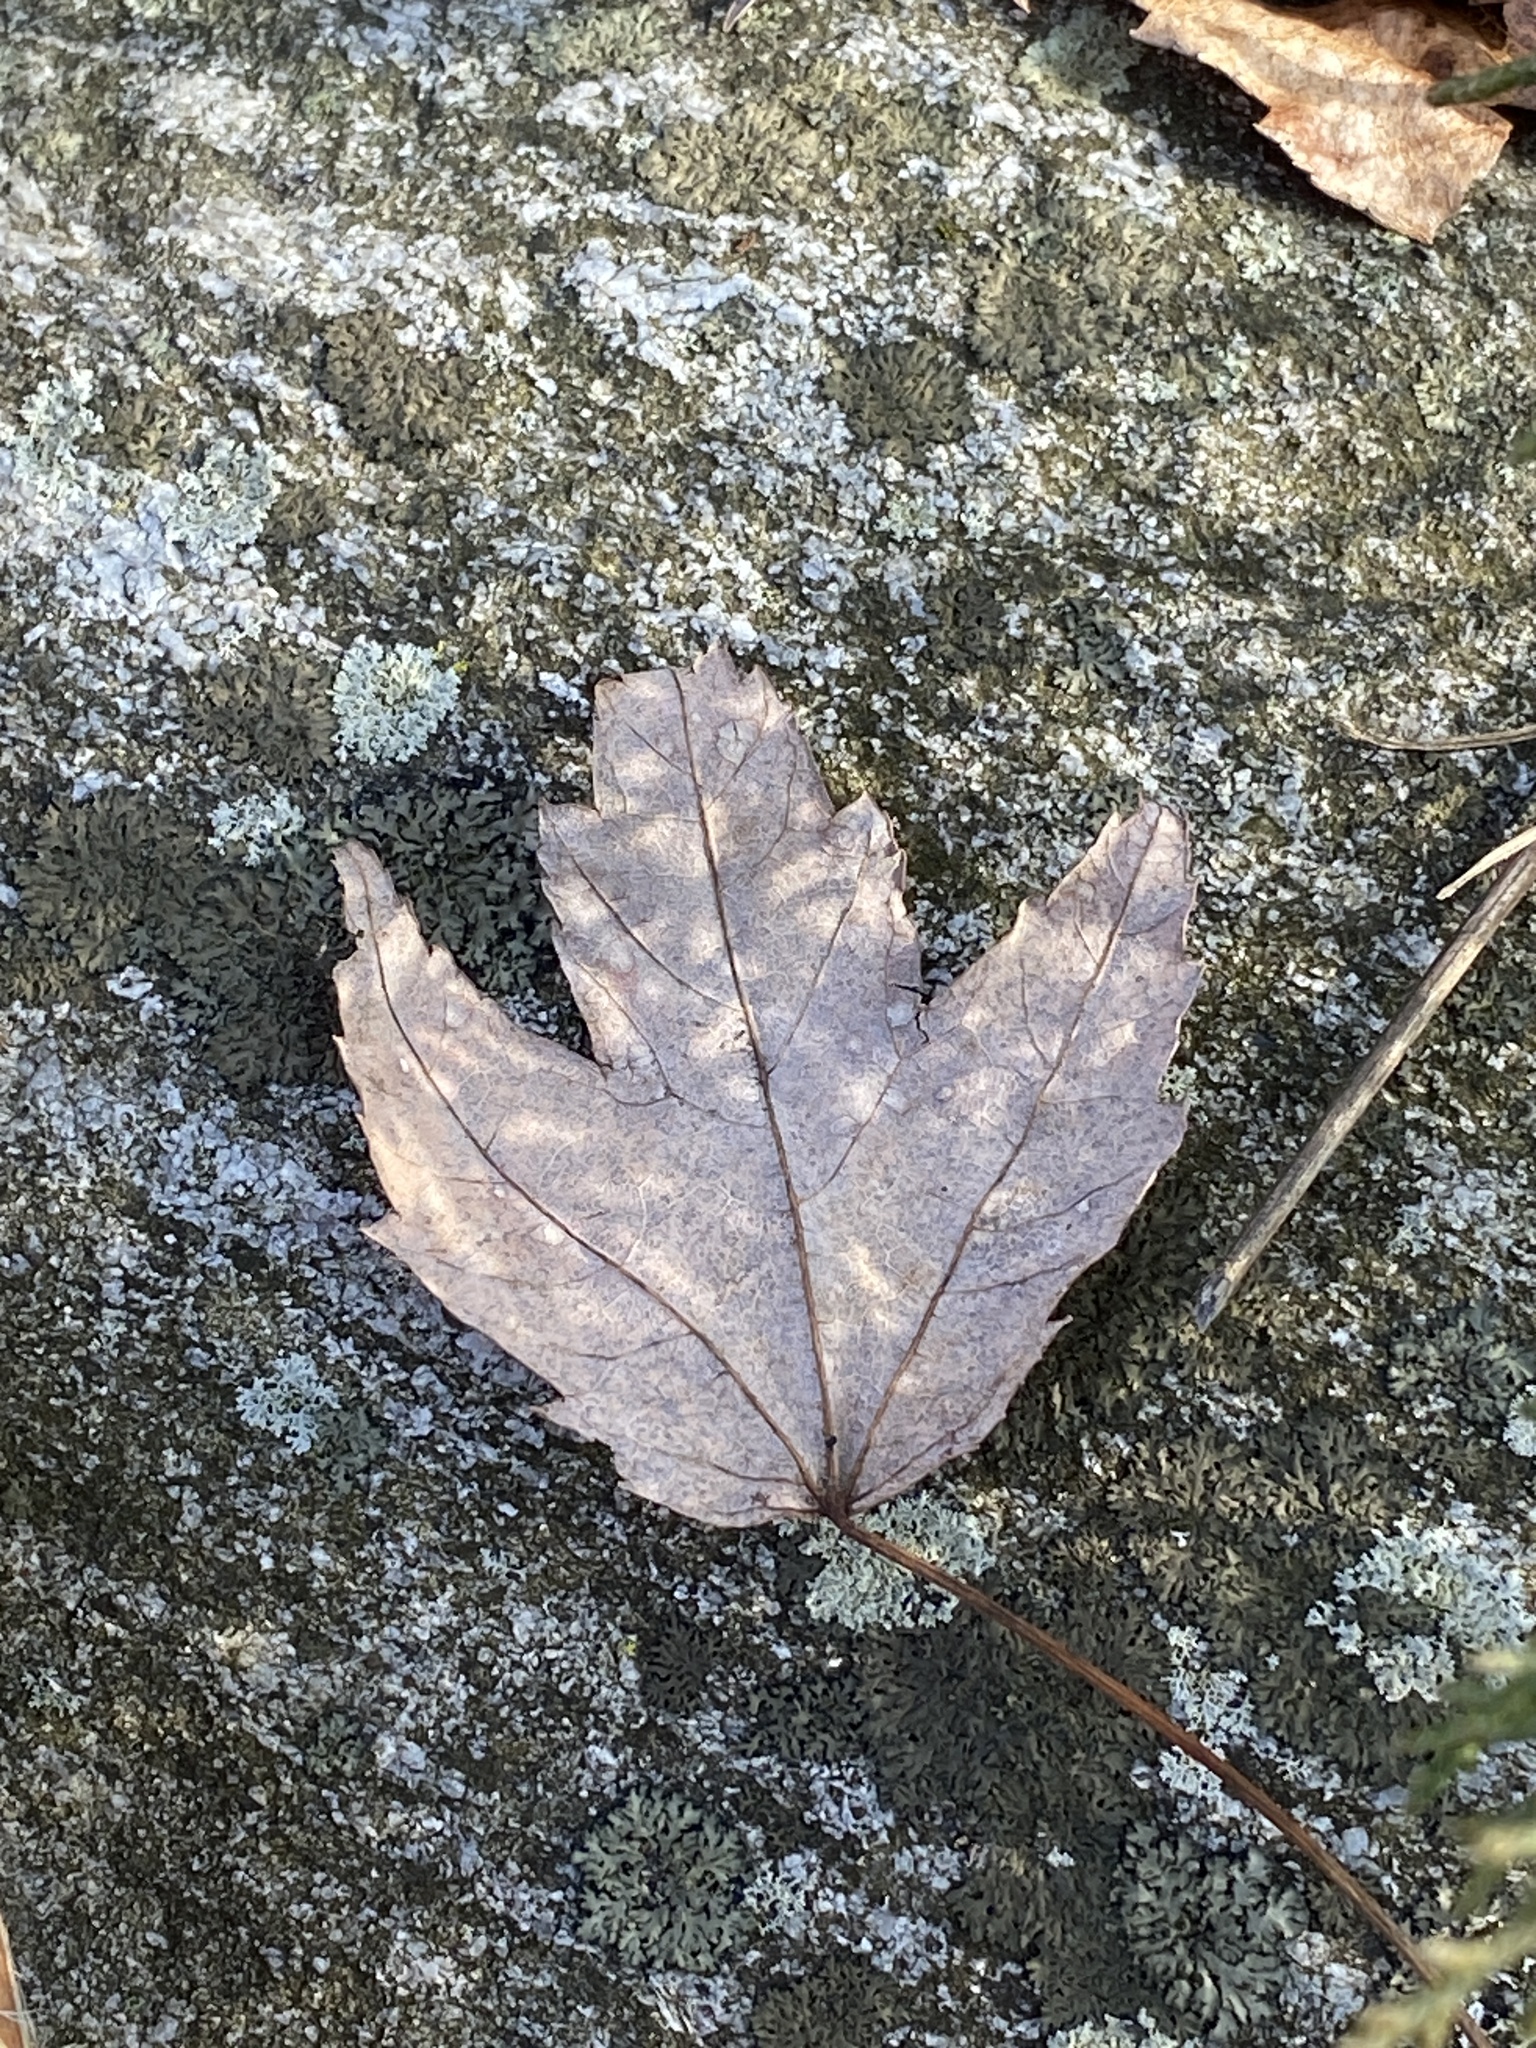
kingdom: Plantae
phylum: Tracheophyta
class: Magnoliopsida
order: Sapindales
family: Sapindaceae
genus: Acer
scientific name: Acer rubrum
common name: Red maple
